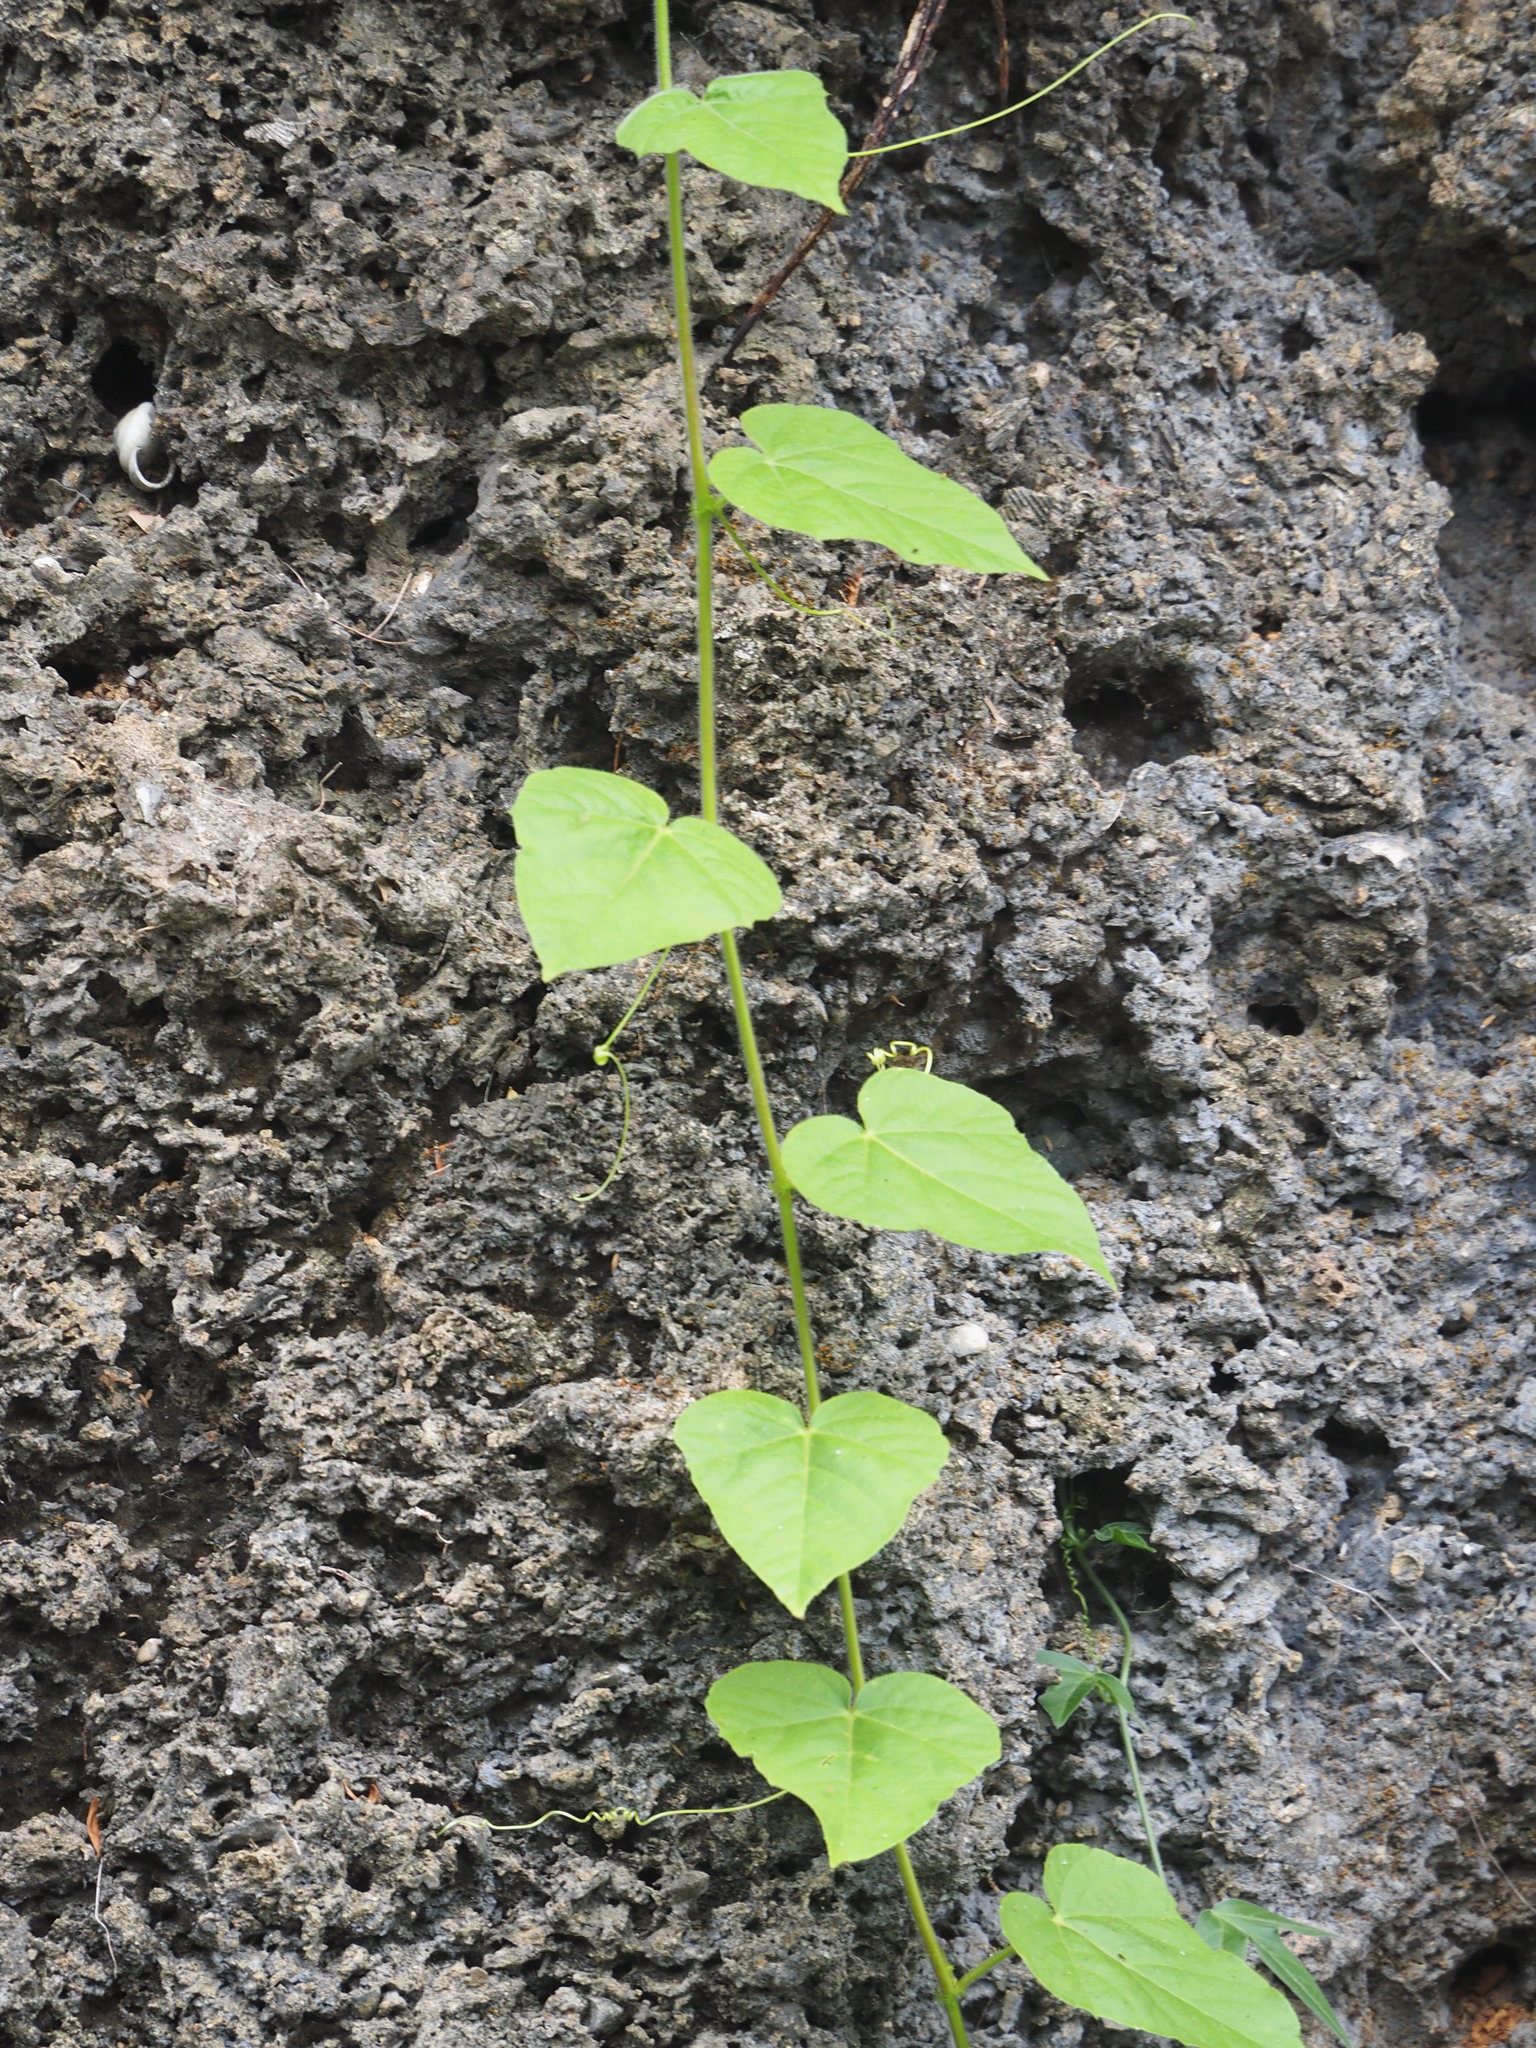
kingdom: Plantae
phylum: Tracheophyta
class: Magnoliopsida
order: Malpighiales
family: Passifloraceae
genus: Passiflora
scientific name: Passiflora vesicaria
